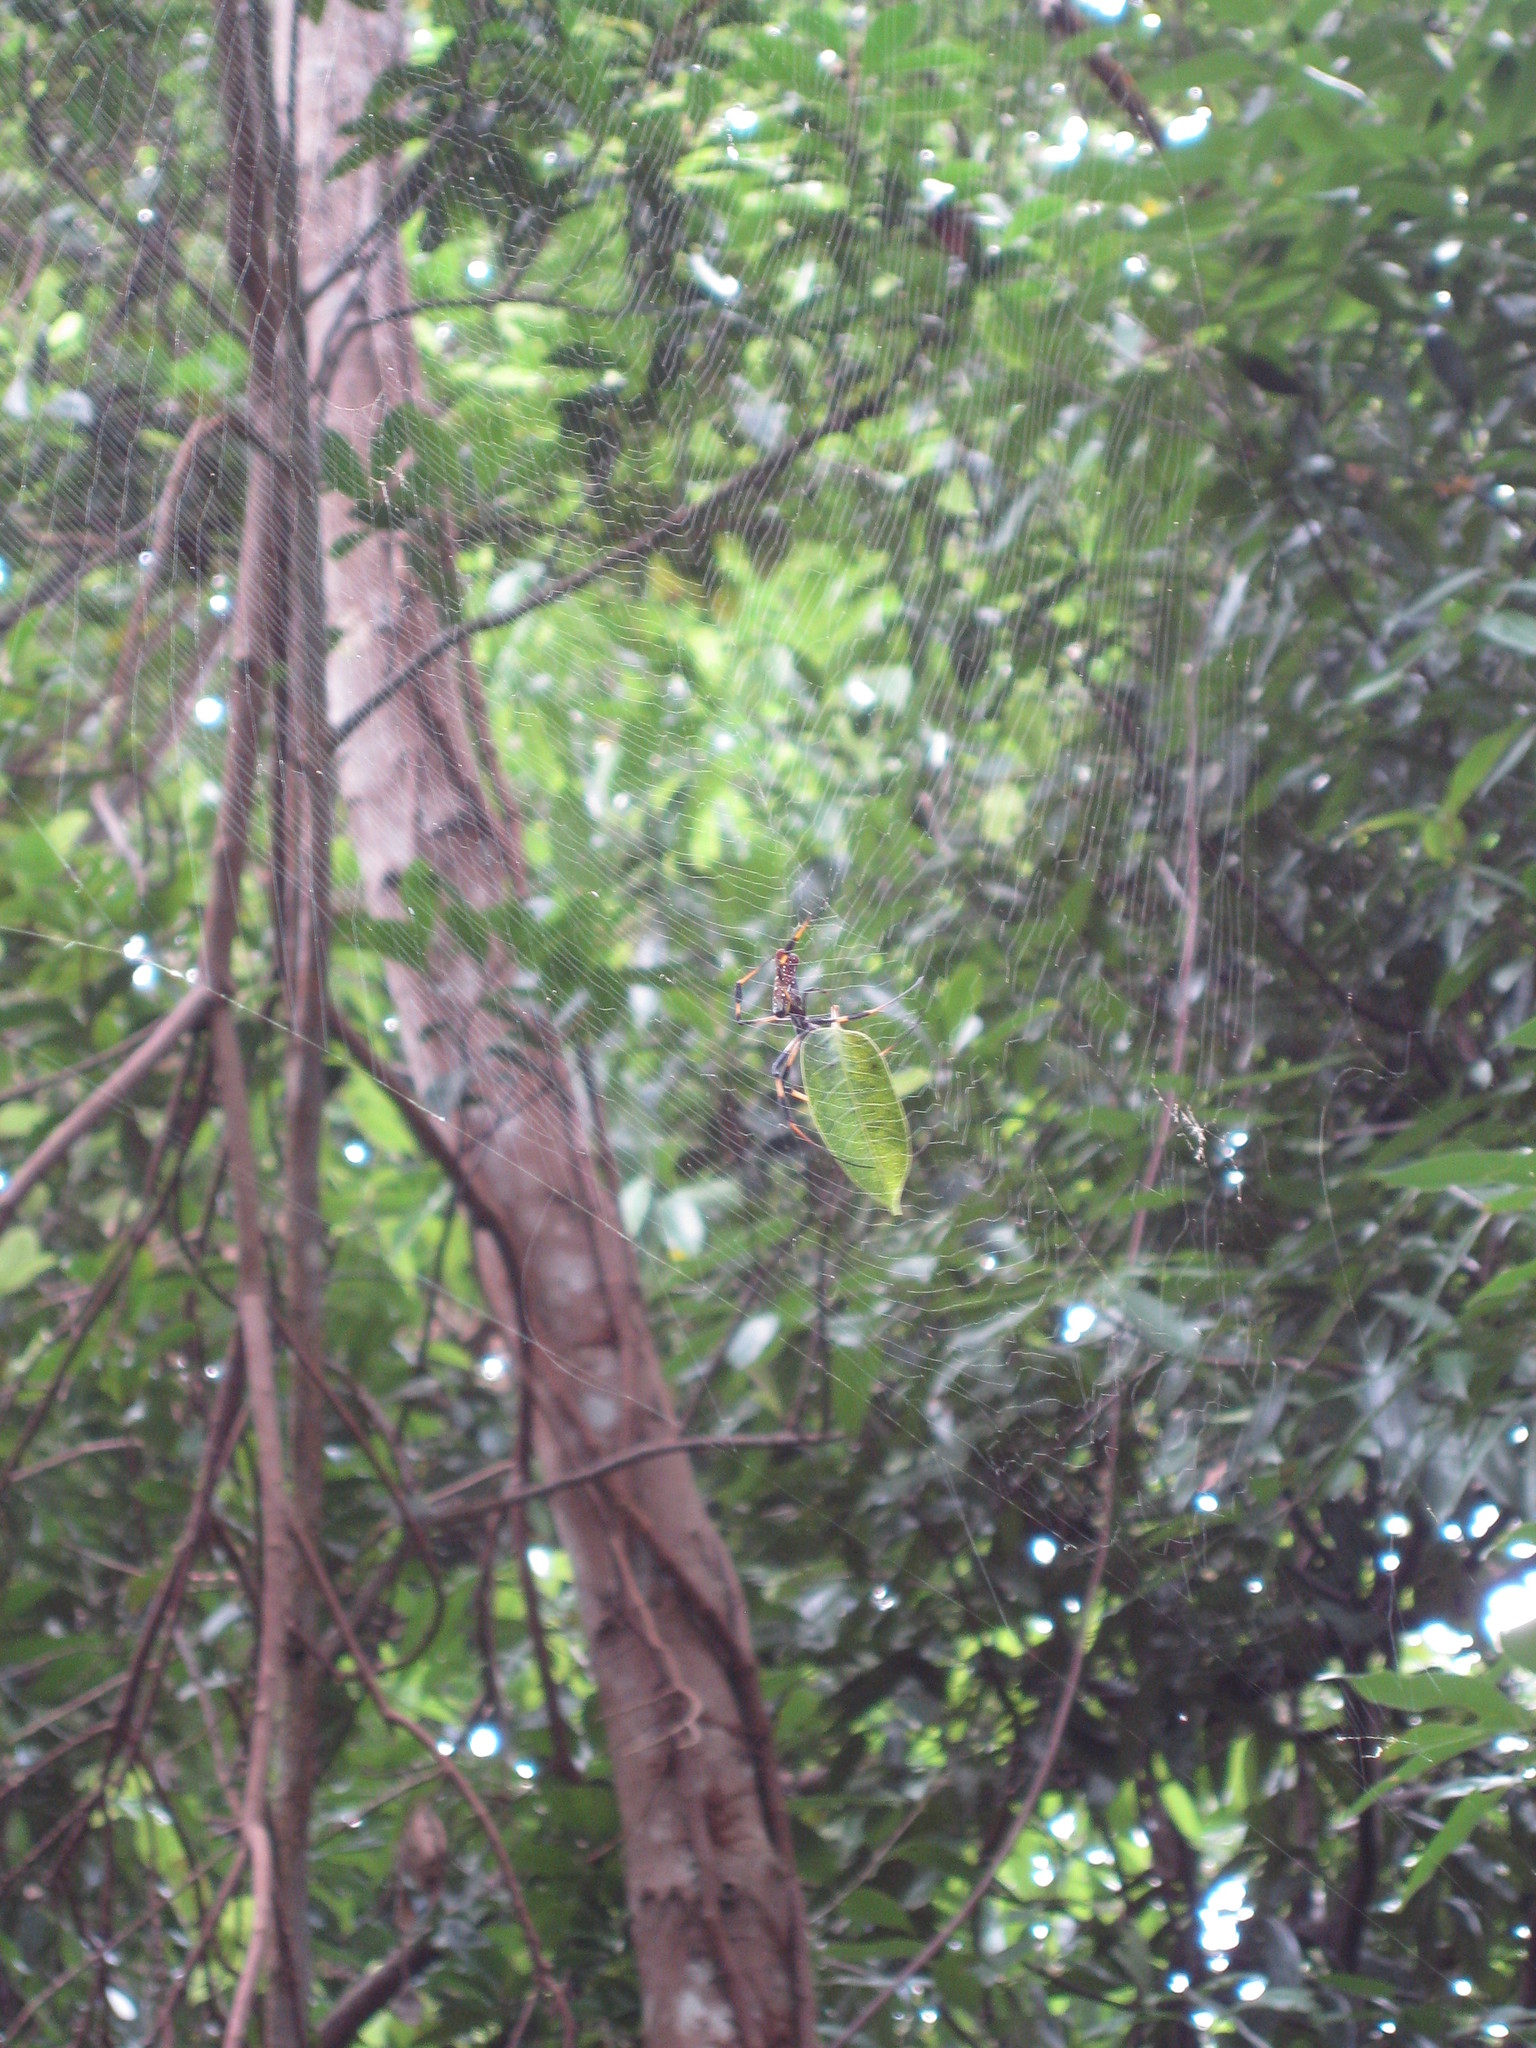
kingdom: Animalia
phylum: Arthropoda
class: Arachnida
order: Araneae
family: Araneidae
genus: Trichonephila
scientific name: Trichonephila clavipes
